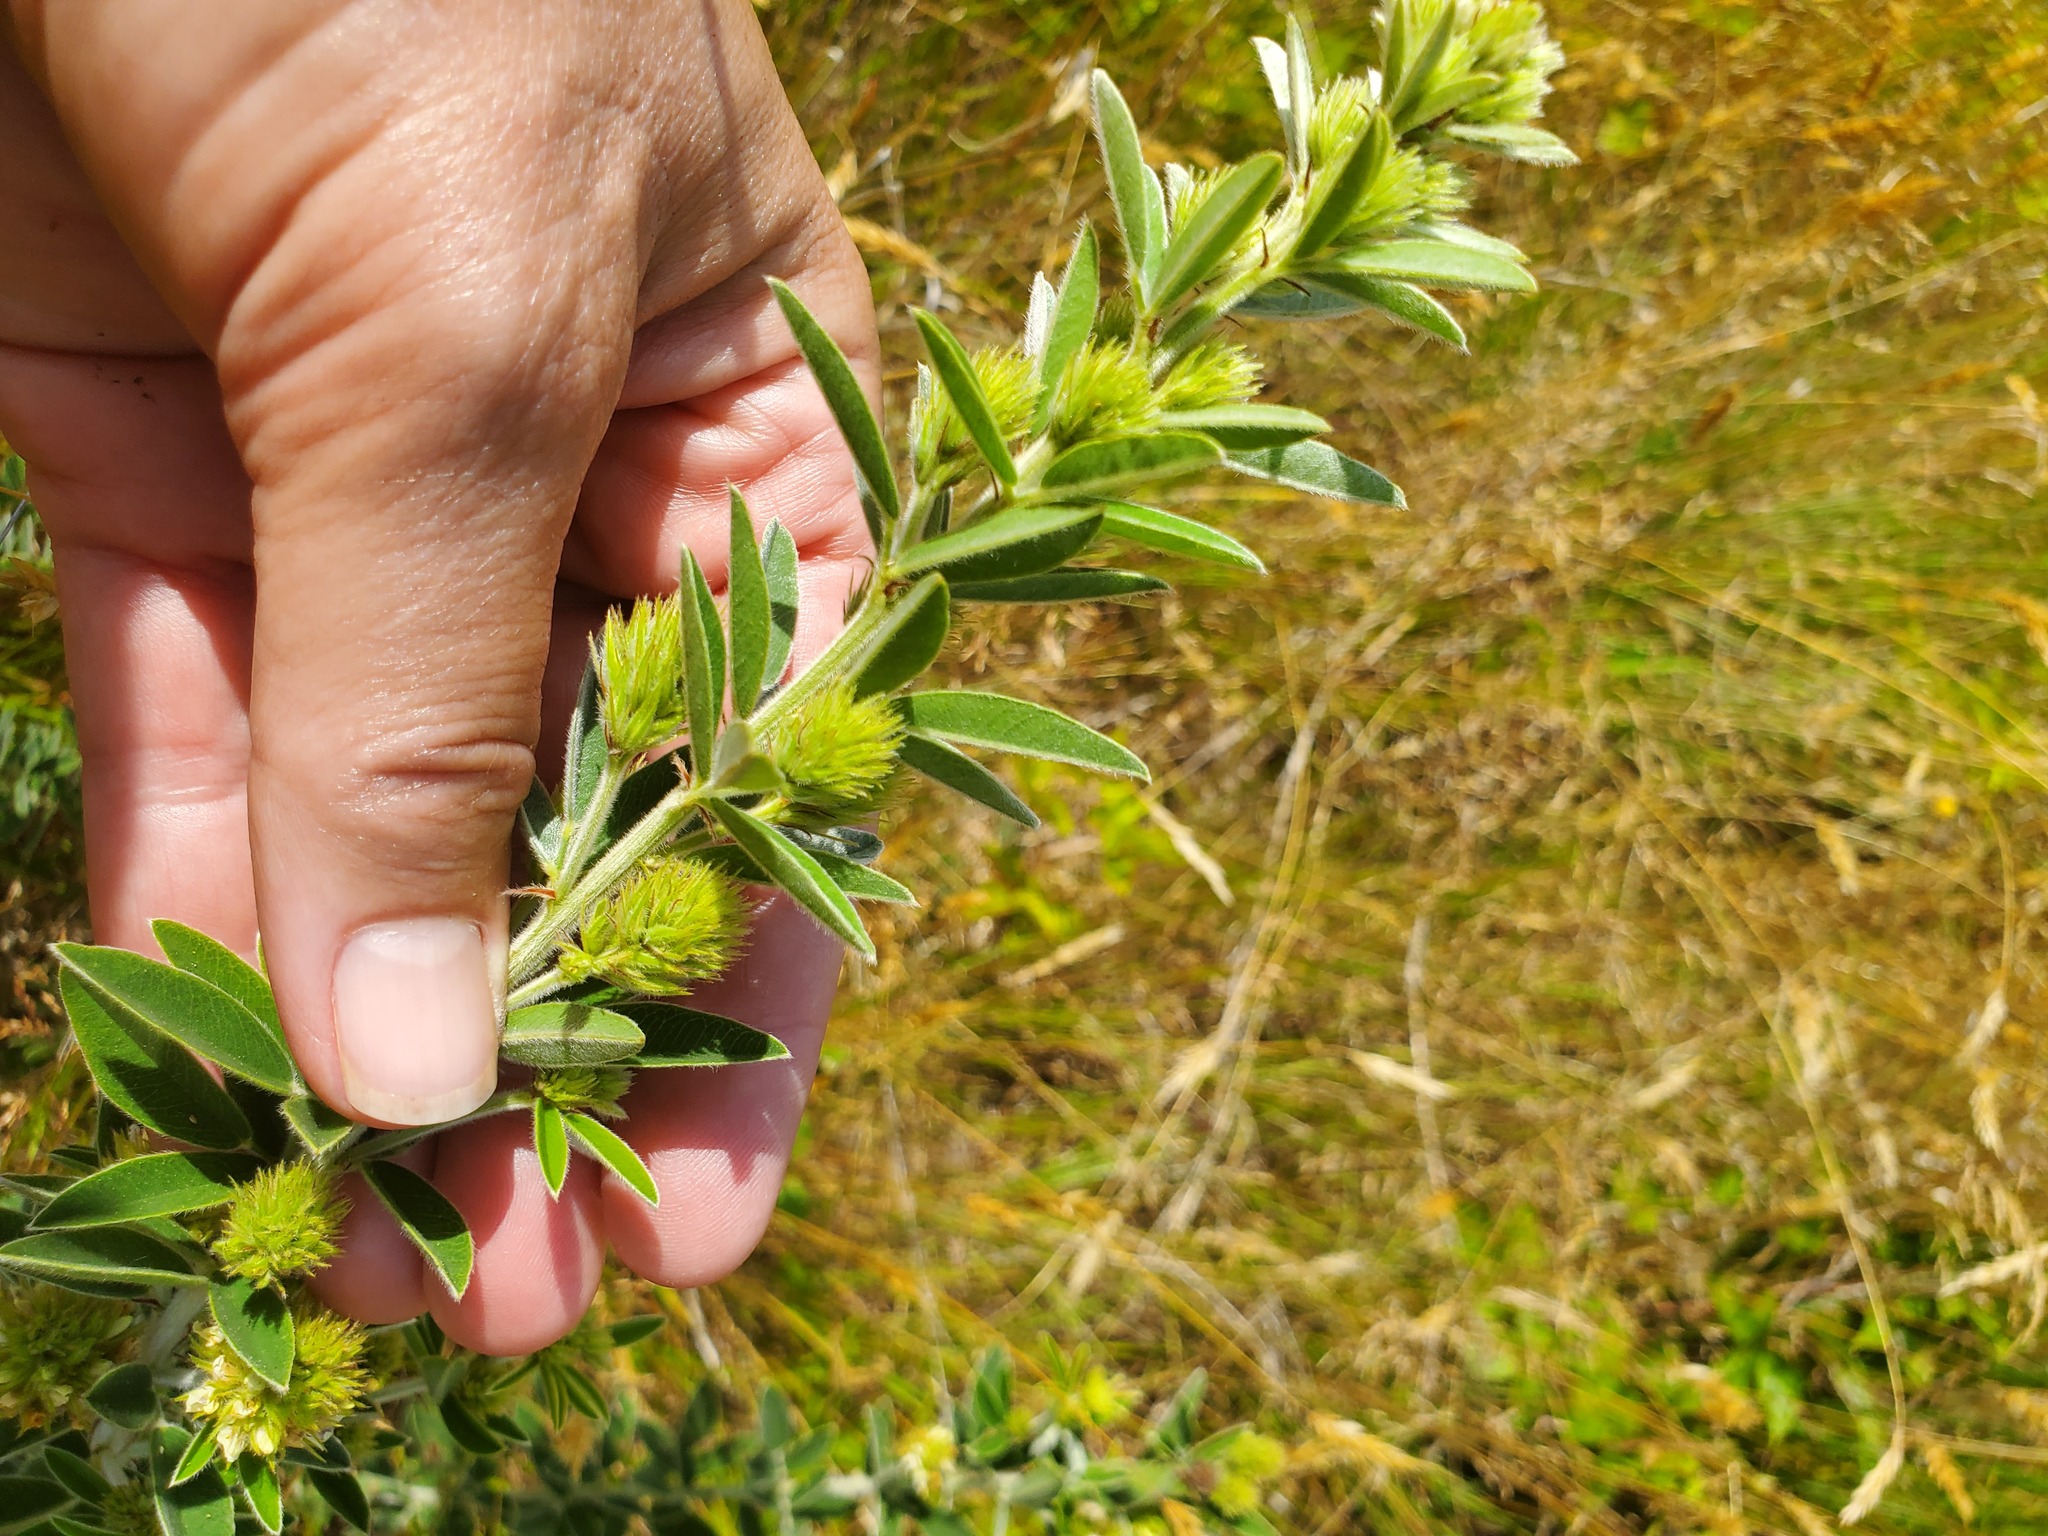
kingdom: Plantae
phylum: Tracheophyta
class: Magnoliopsida
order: Fabales
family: Fabaceae
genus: Lespedeza
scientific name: Lespedeza capitata
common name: Dusty clover
